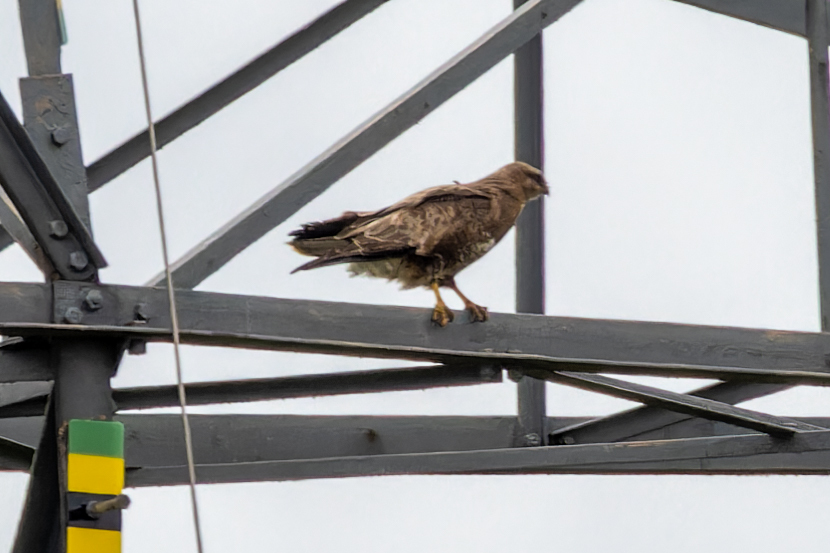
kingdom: Animalia
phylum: Chordata
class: Aves
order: Accipitriformes
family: Accipitridae
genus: Buteo
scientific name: Buteo buteo
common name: Common buzzard
